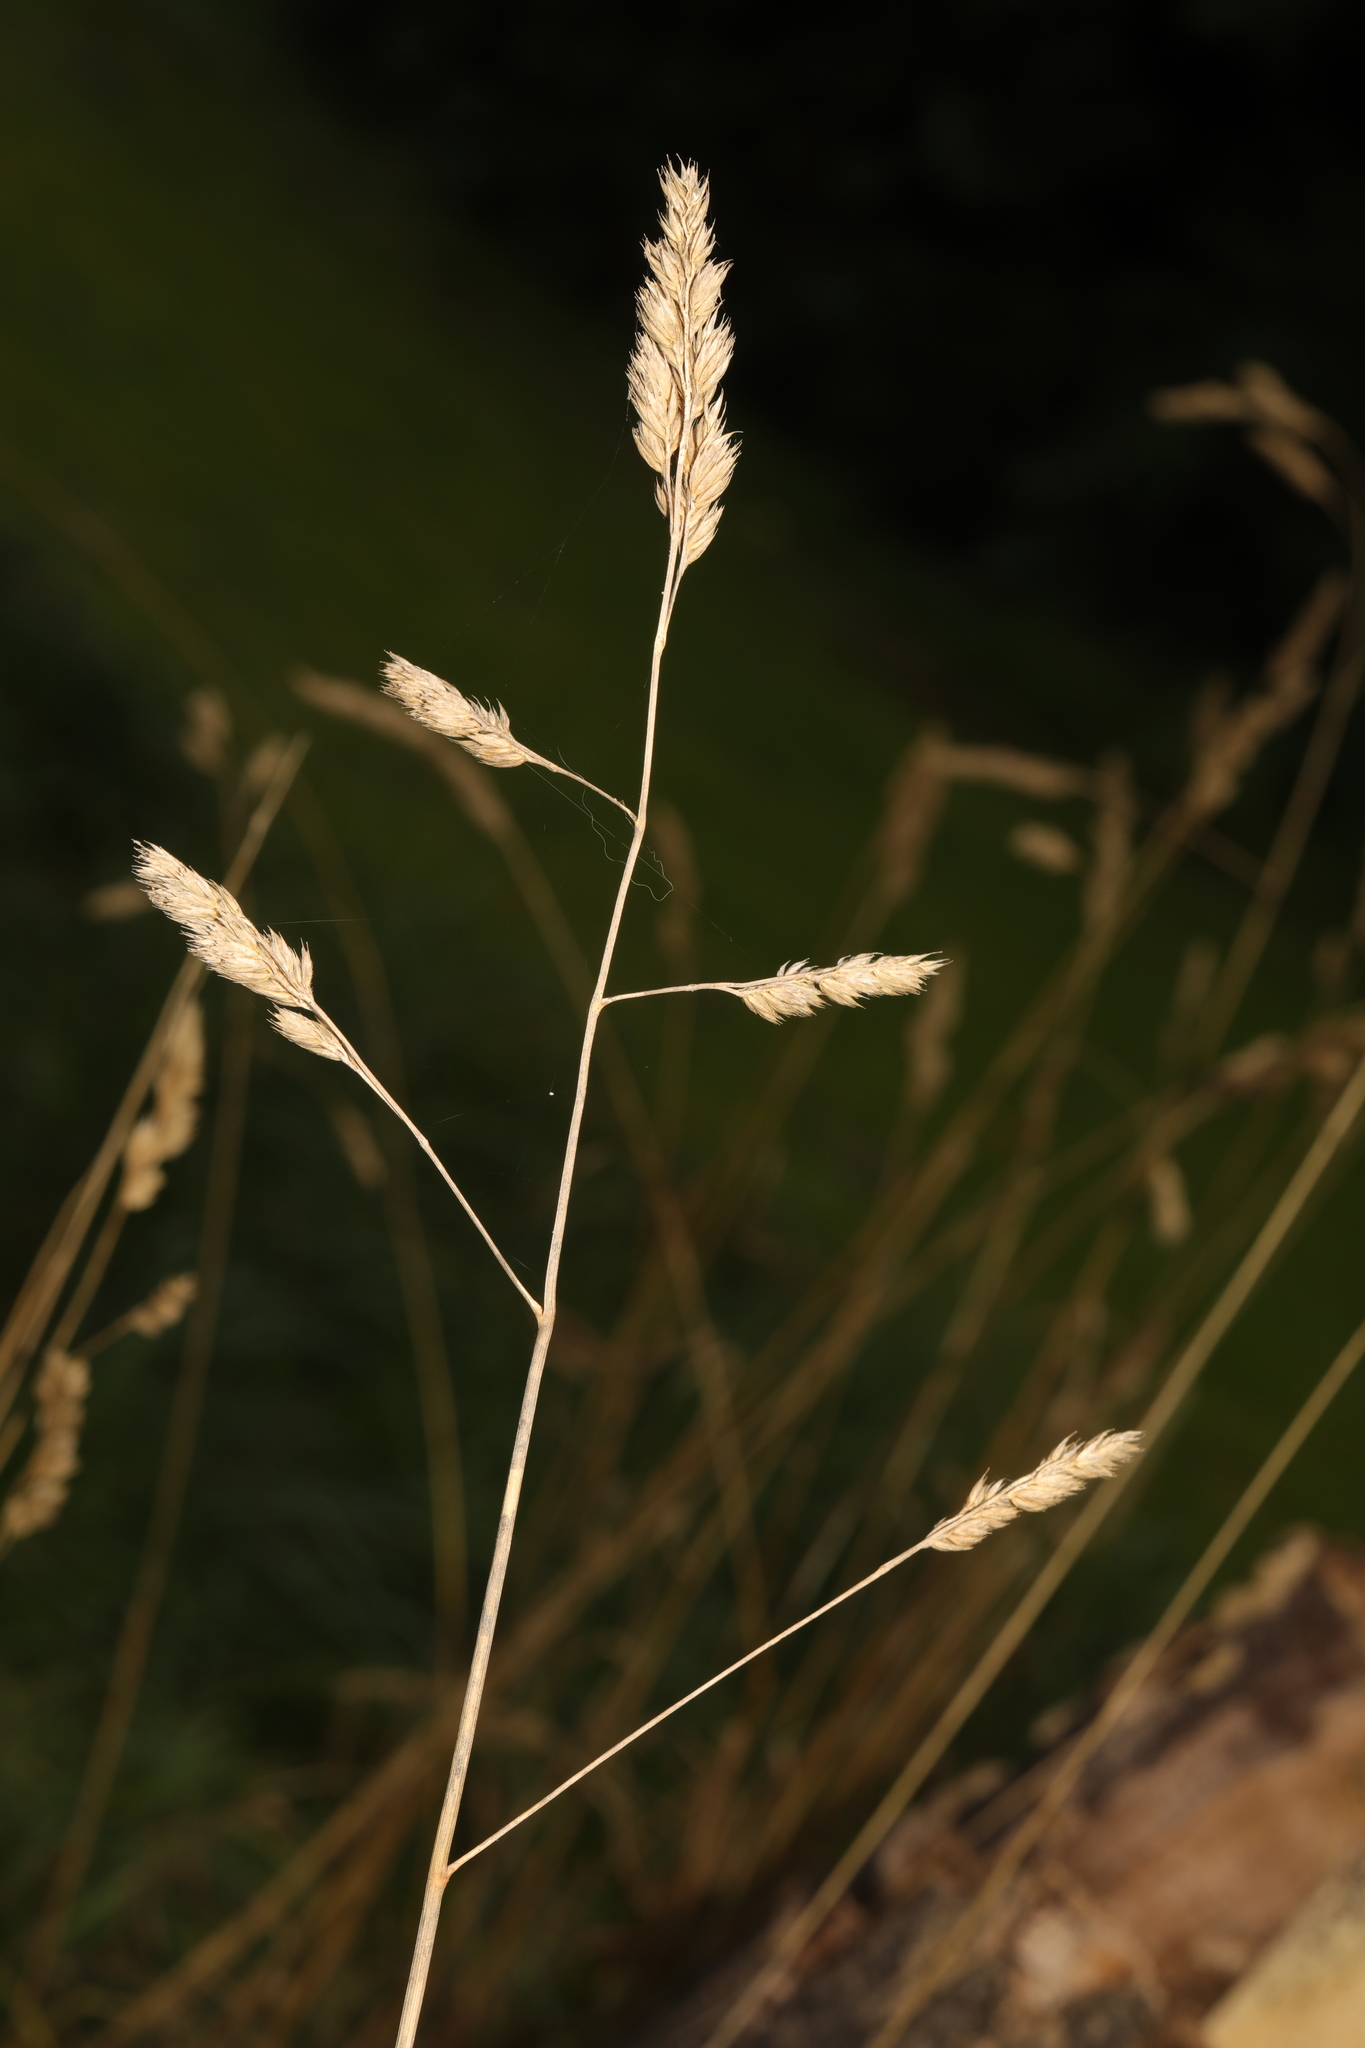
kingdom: Plantae
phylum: Tracheophyta
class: Liliopsida
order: Poales
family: Poaceae
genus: Dactylis
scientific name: Dactylis glomerata
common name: Orchardgrass
